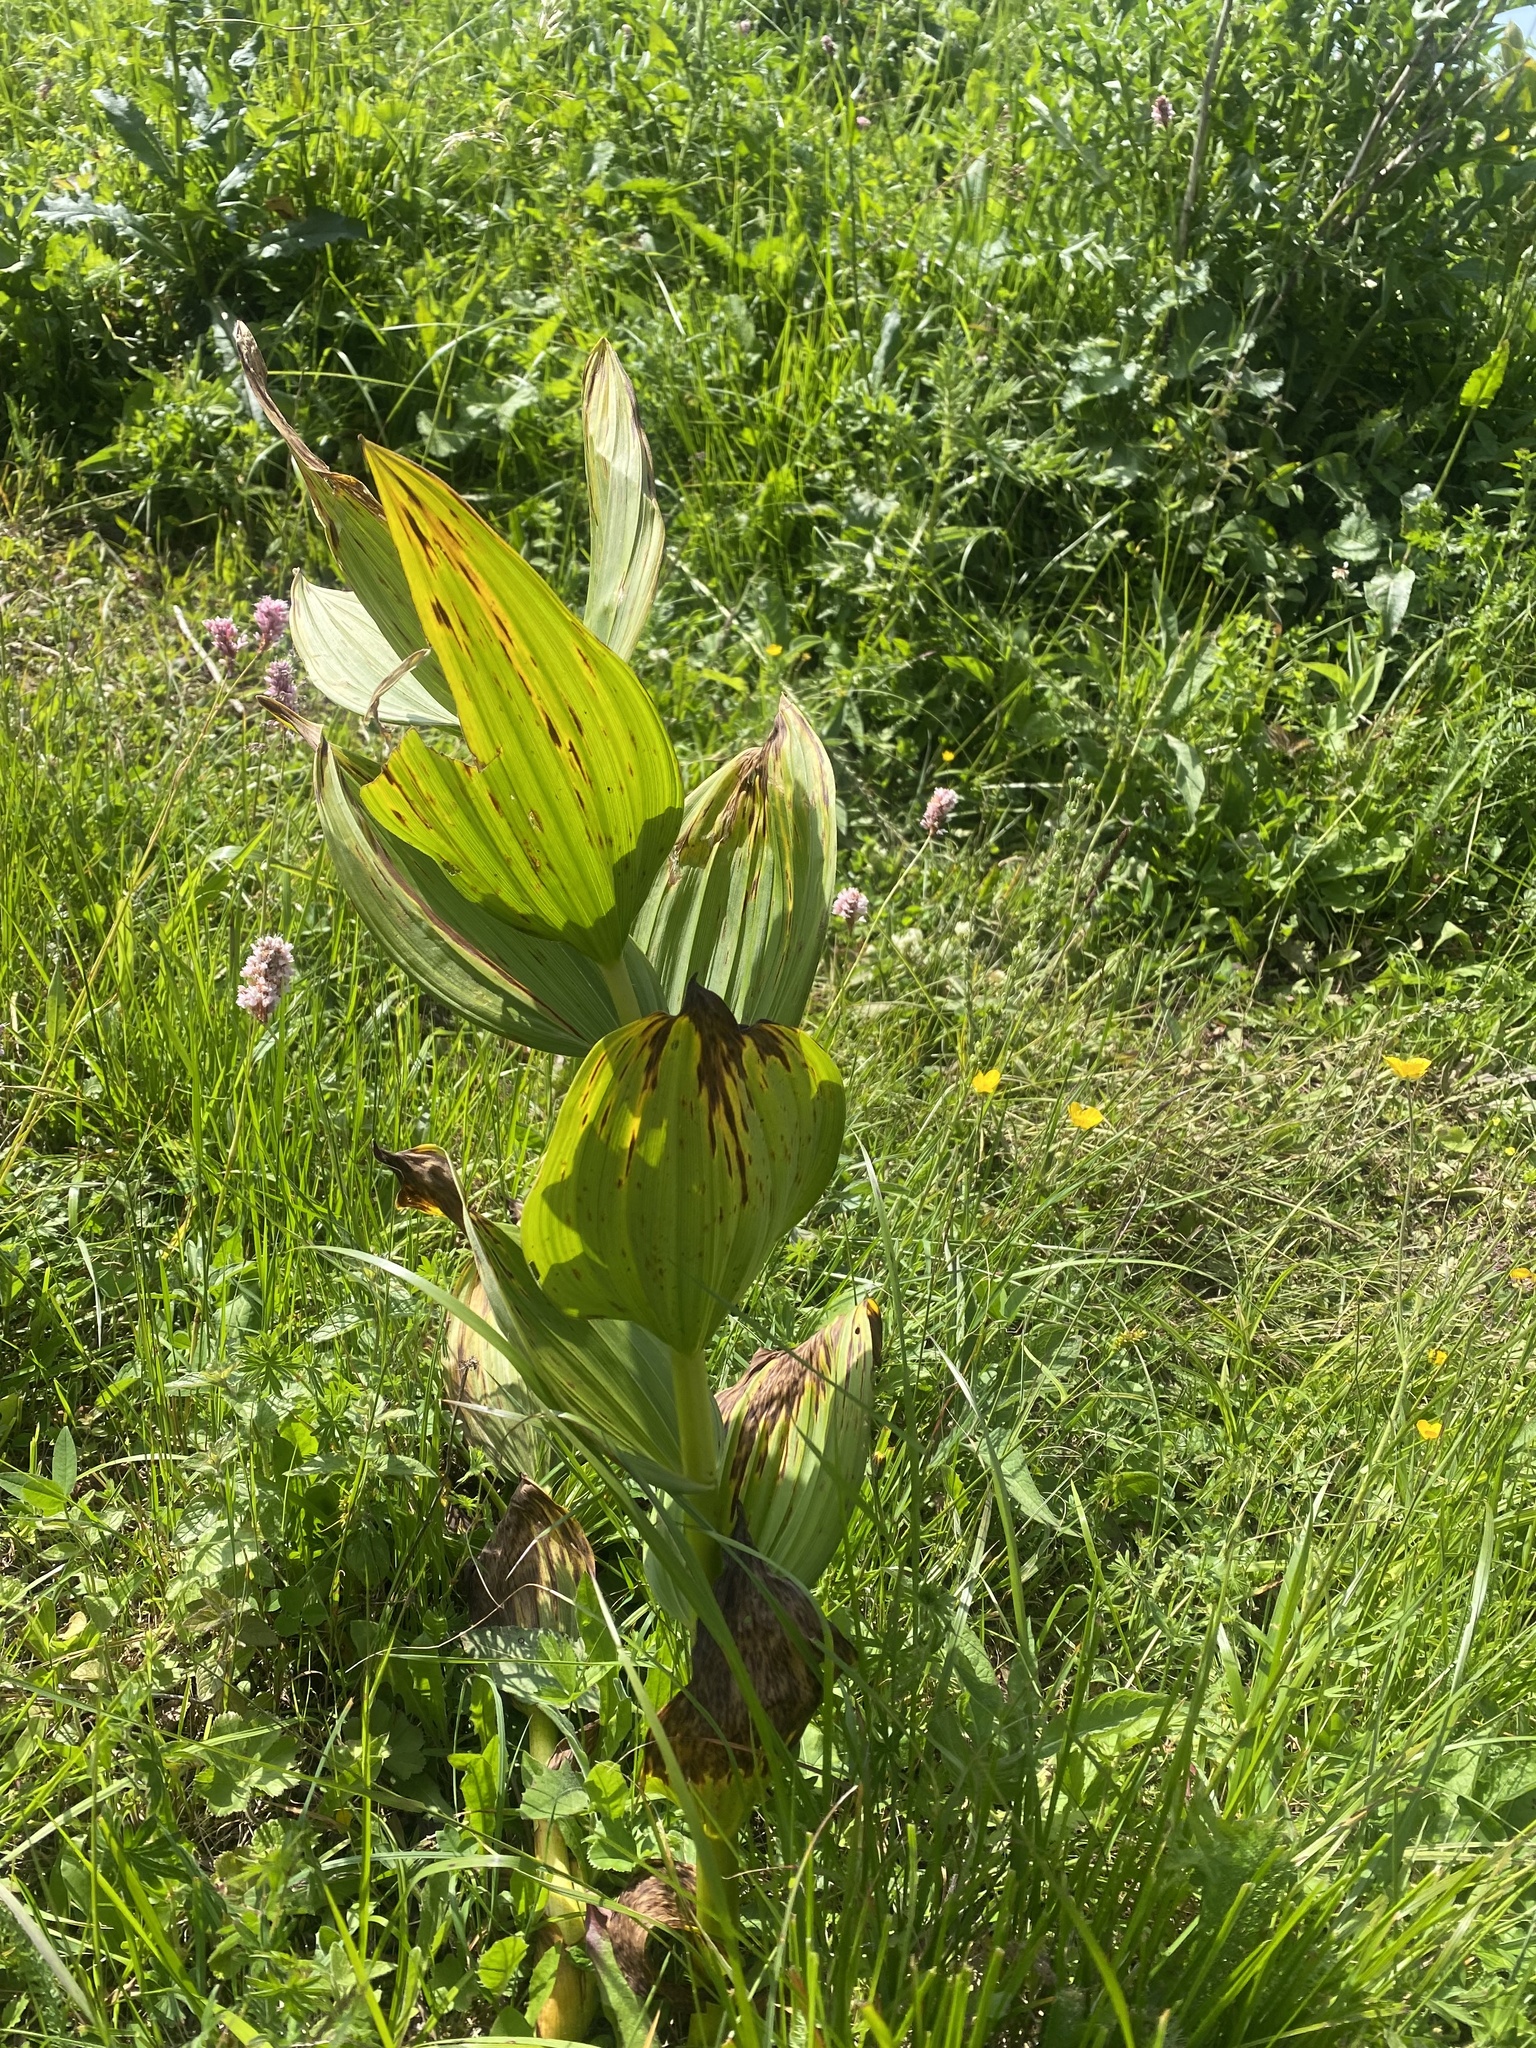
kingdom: Plantae
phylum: Tracheophyta
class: Liliopsida
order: Liliales
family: Melanthiaceae
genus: Veratrum
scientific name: Veratrum lobelianum
